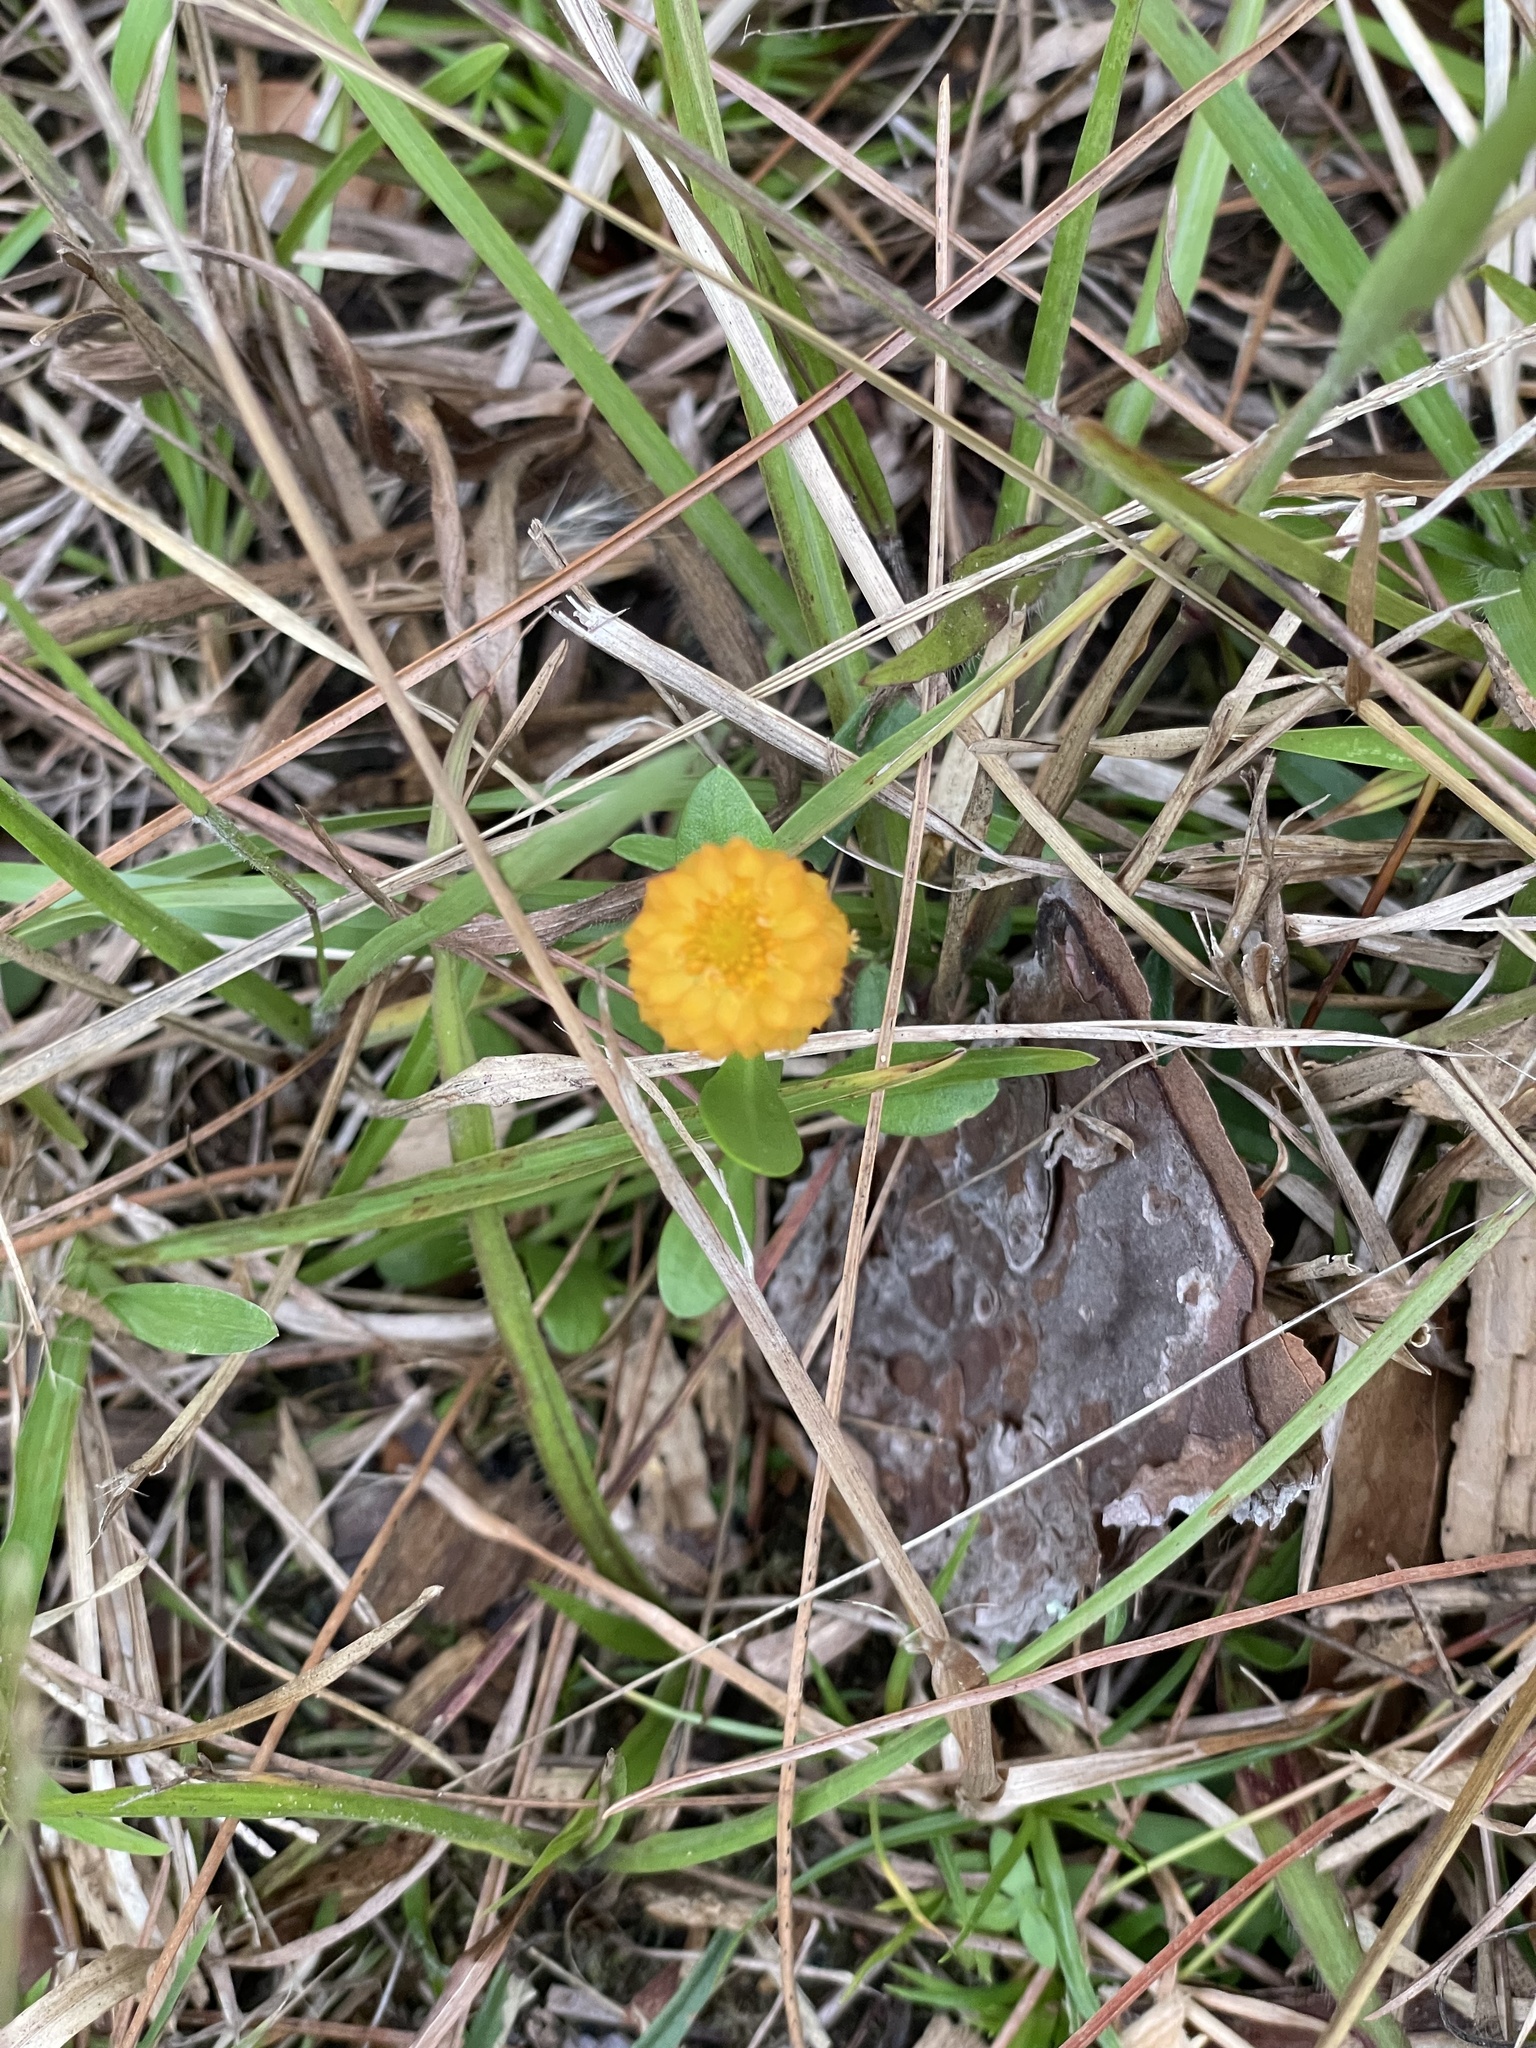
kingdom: Plantae
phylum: Tracheophyta
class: Magnoliopsida
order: Fabales
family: Polygalaceae
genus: Polygala
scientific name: Polygala lutea
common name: Orange milkwort
